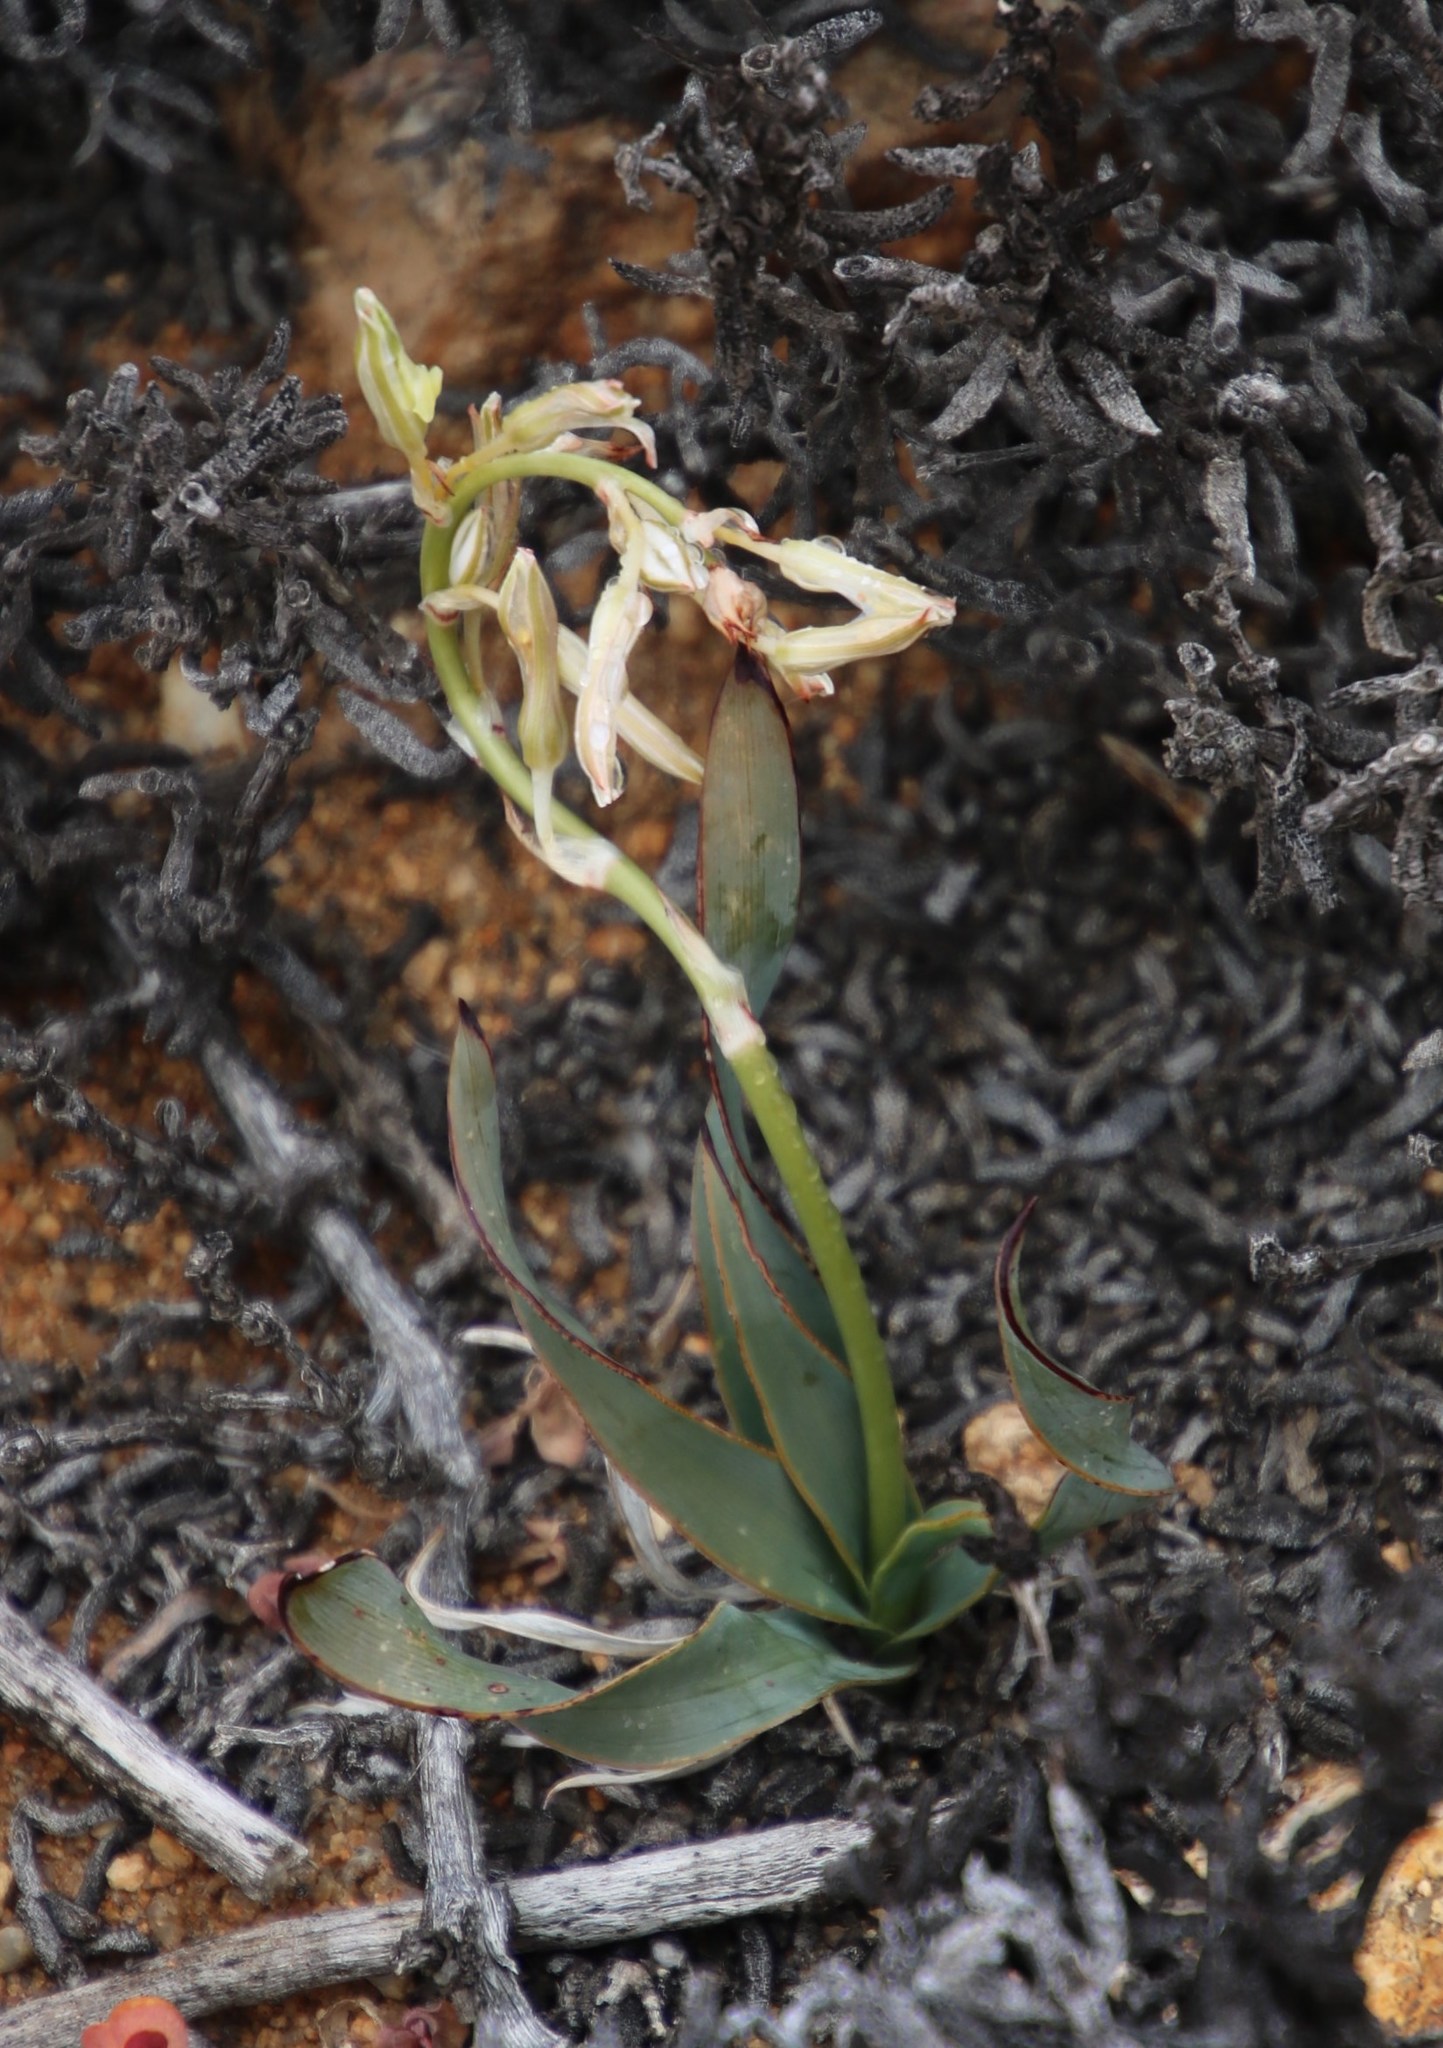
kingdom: Plantae
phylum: Tracheophyta
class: Liliopsida
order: Asparagales
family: Asparagaceae
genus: Chlorophytum
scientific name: Chlorophytum crassinerve
